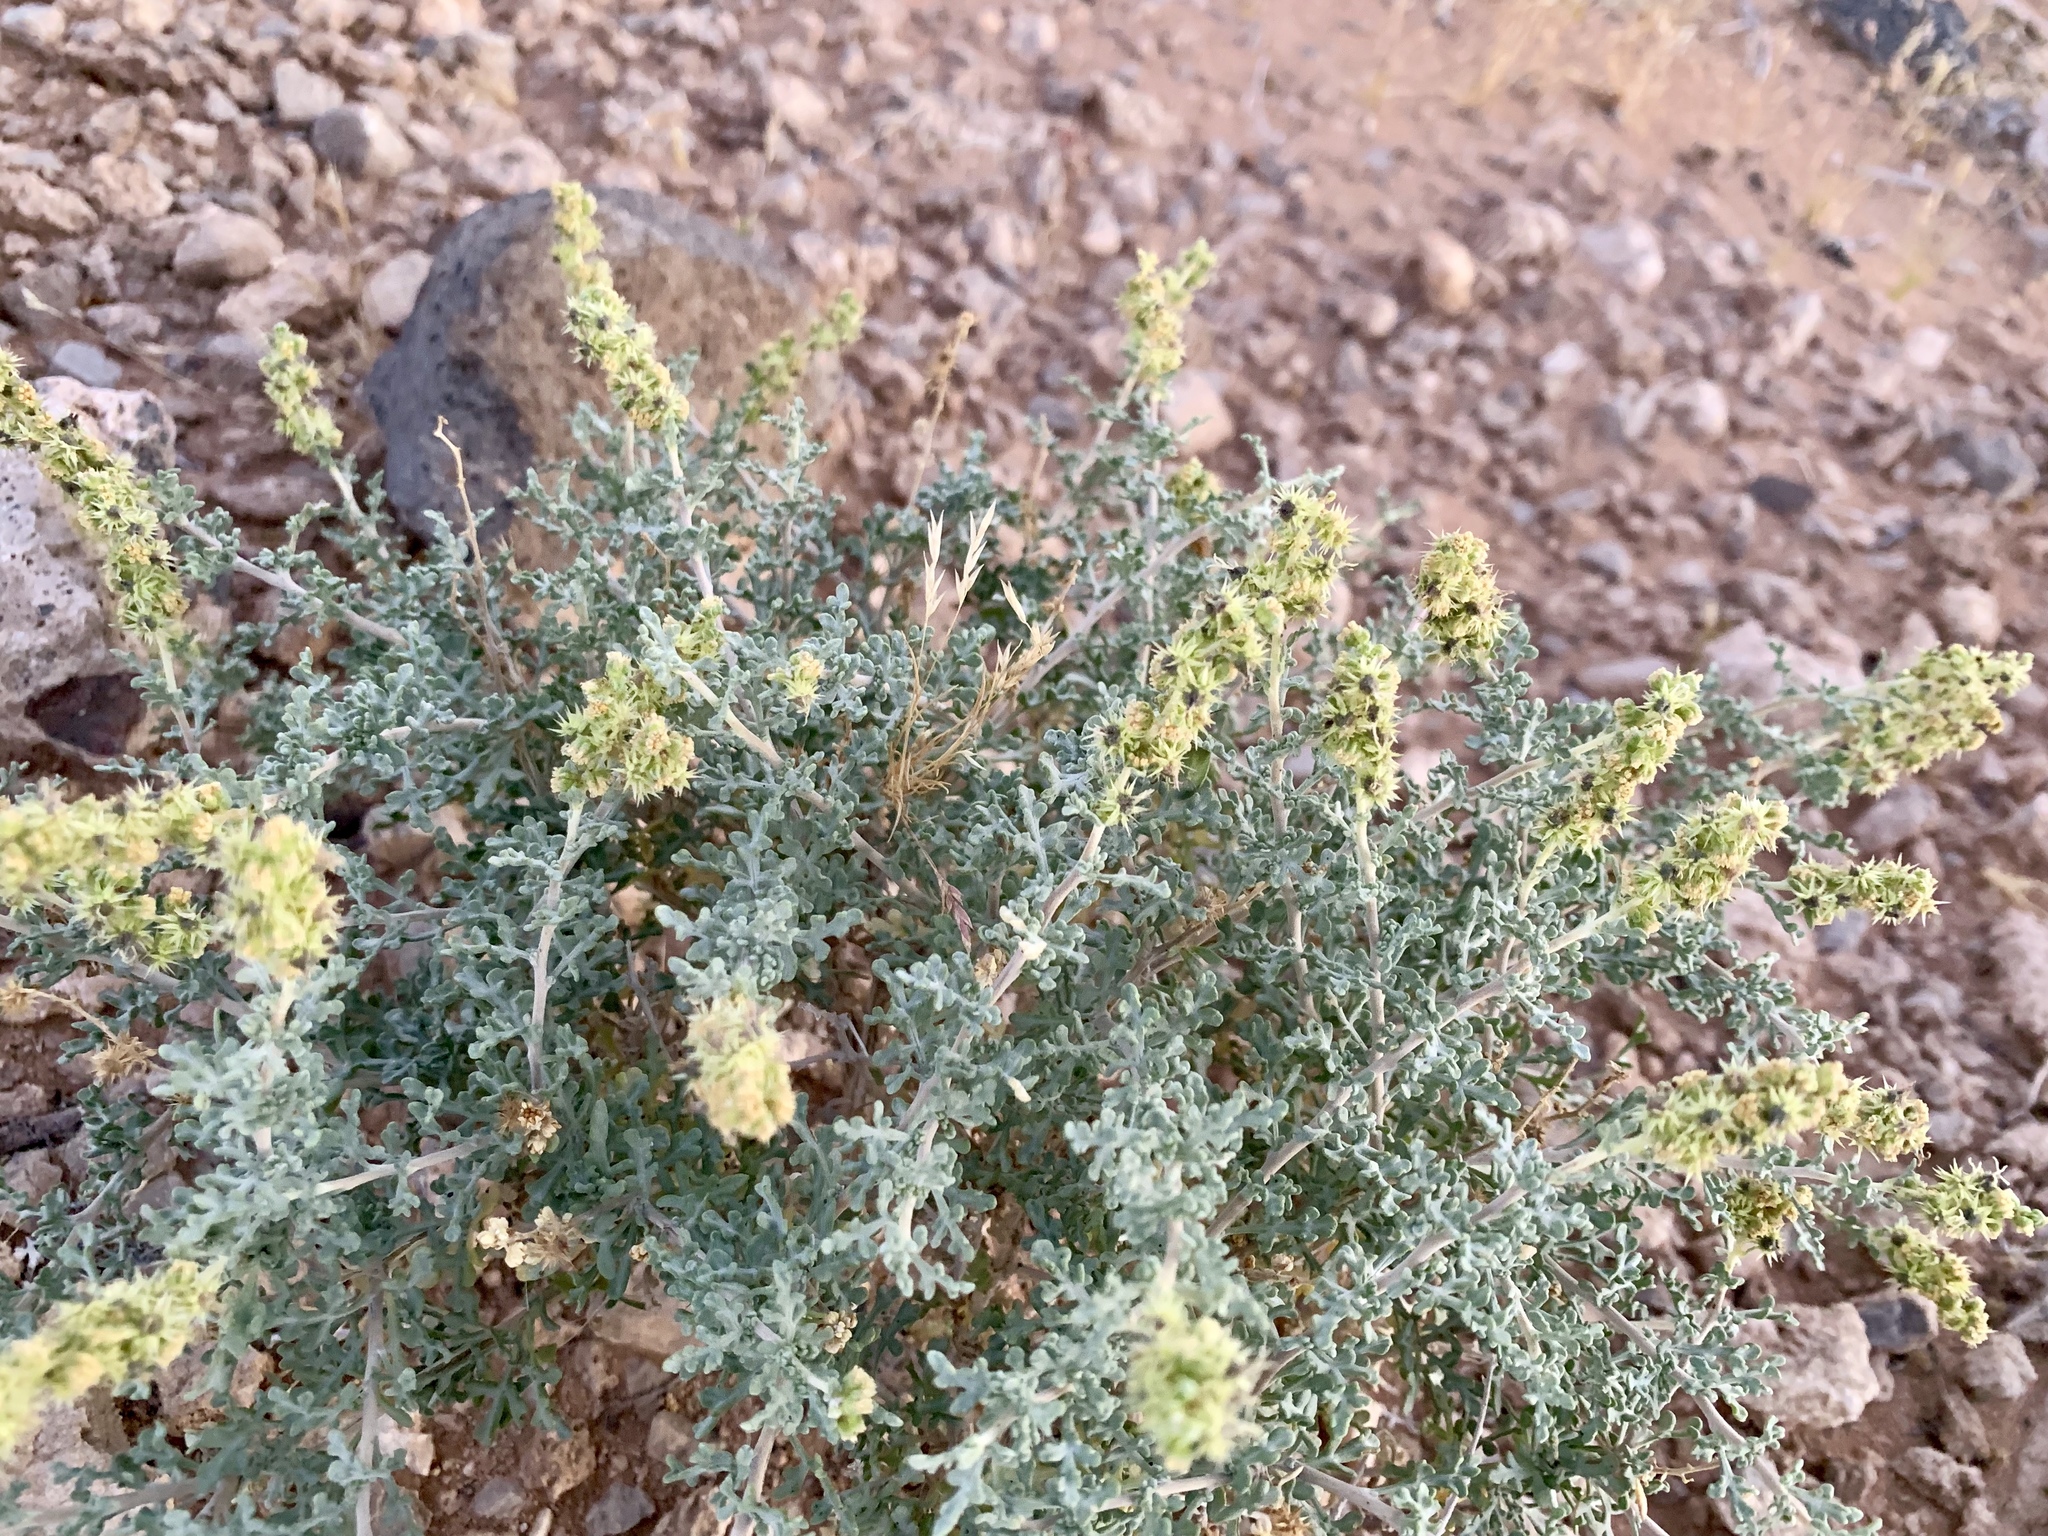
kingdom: Plantae
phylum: Tracheophyta
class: Magnoliopsida
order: Asterales
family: Asteraceae
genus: Ambrosia
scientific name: Ambrosia dumosa
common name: Bur-sage
